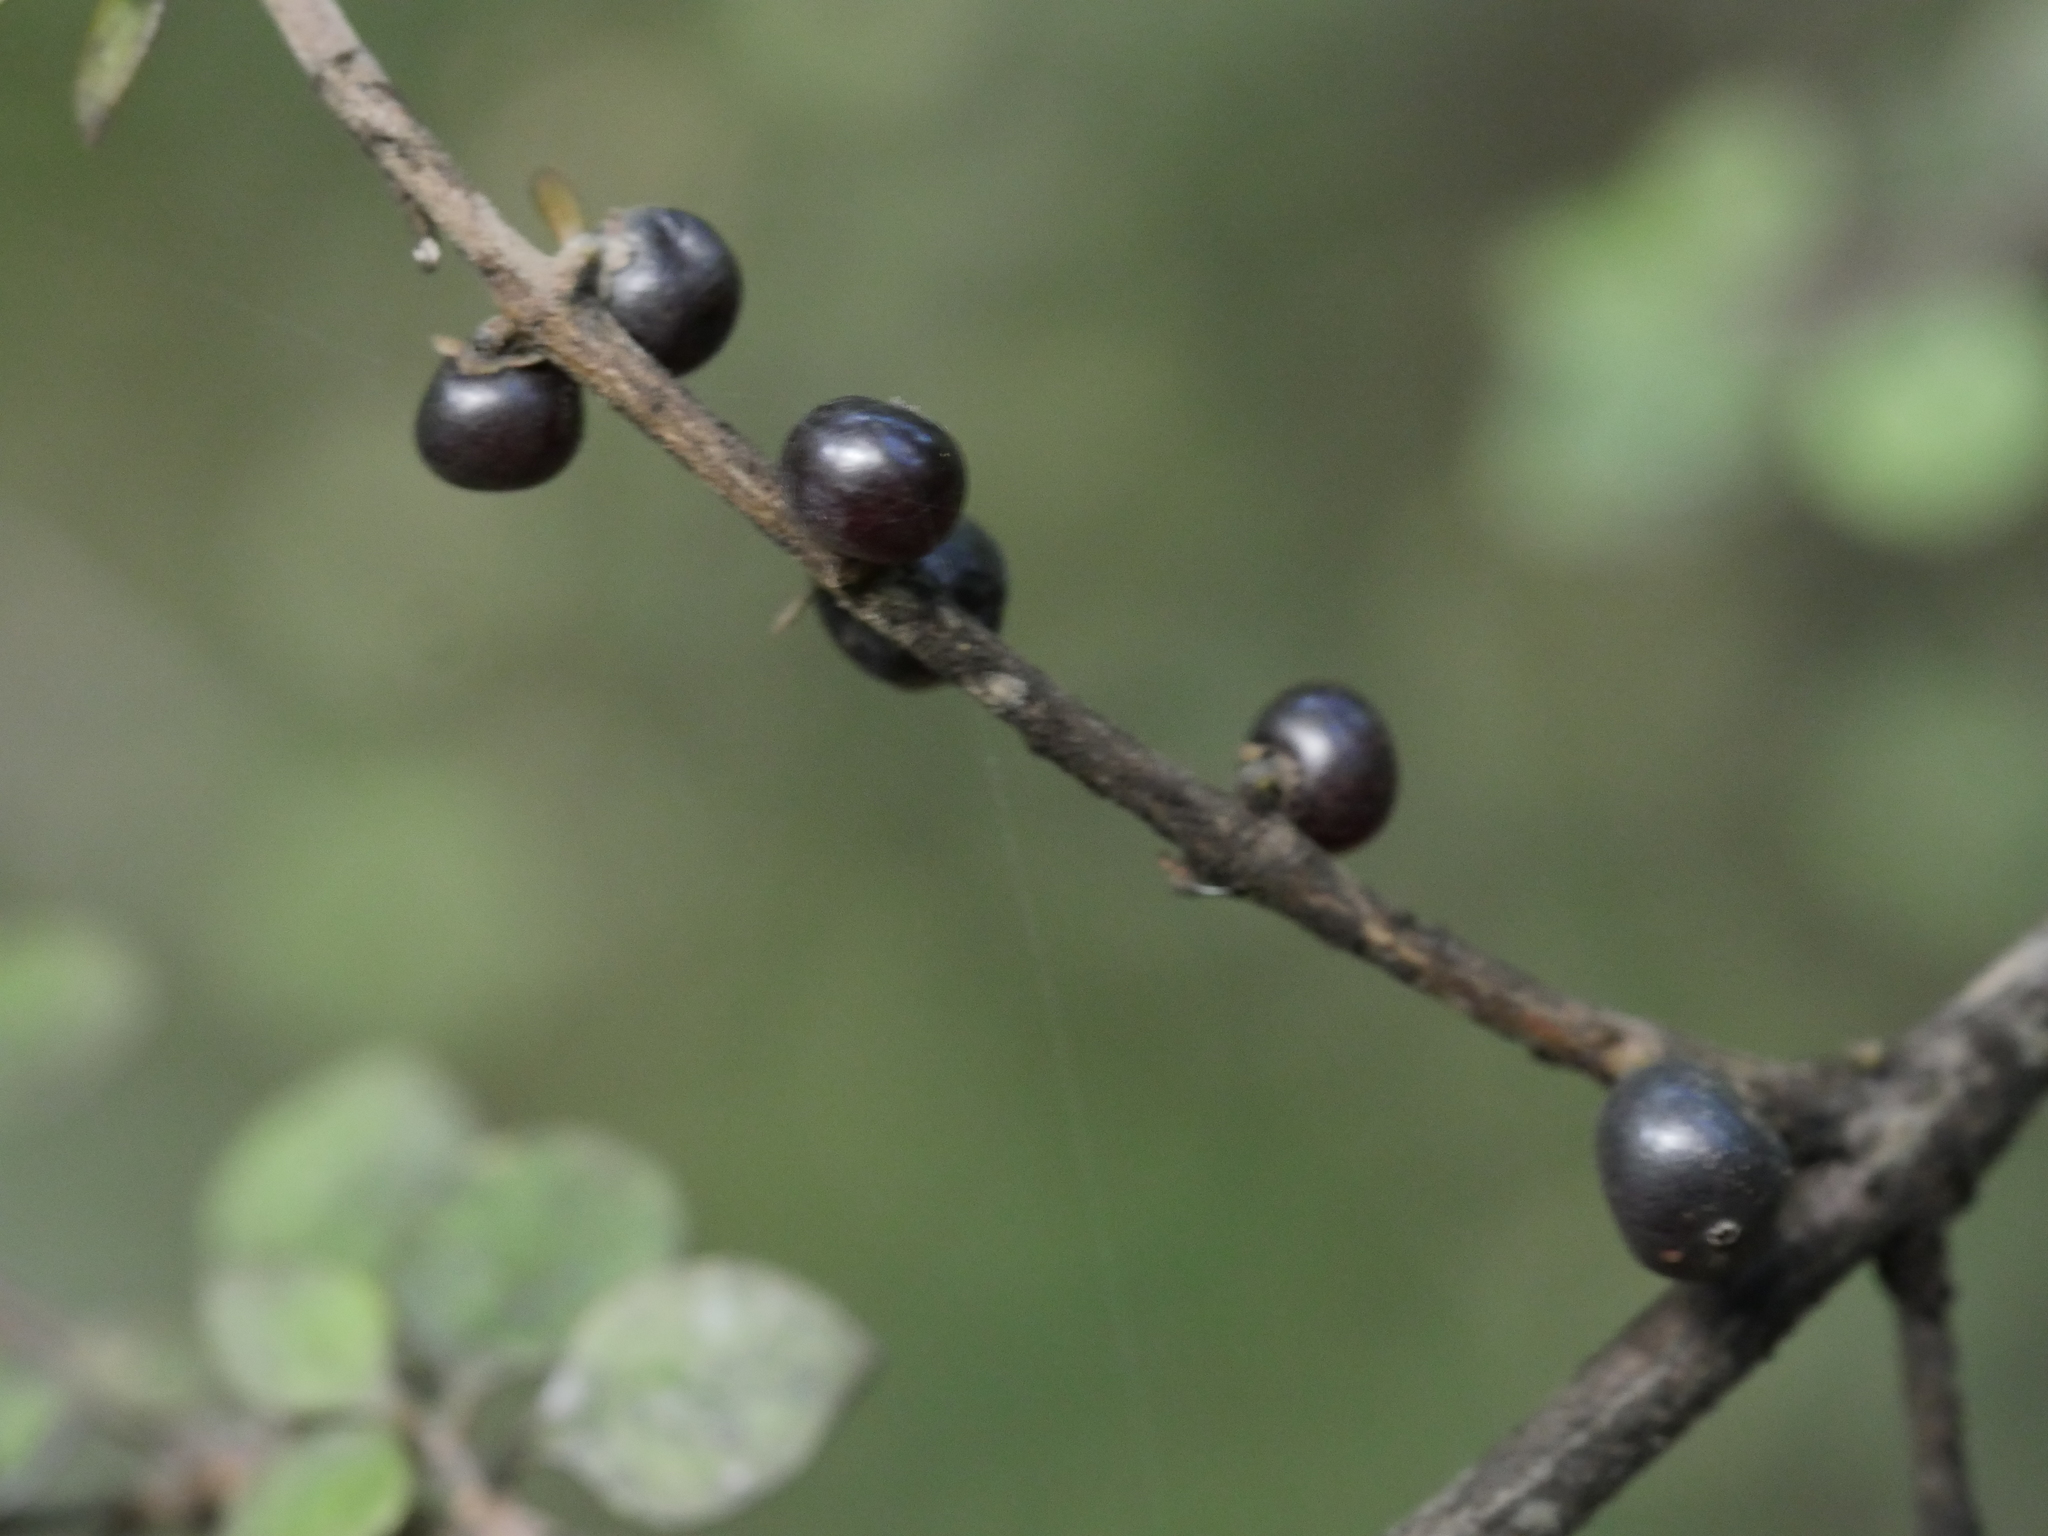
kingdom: Plantae
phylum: Tracheophyta
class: Magnoliopsida
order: Gentianales
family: Rubiaceae
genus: Coprosma
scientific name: Coprosma rhamnoides
